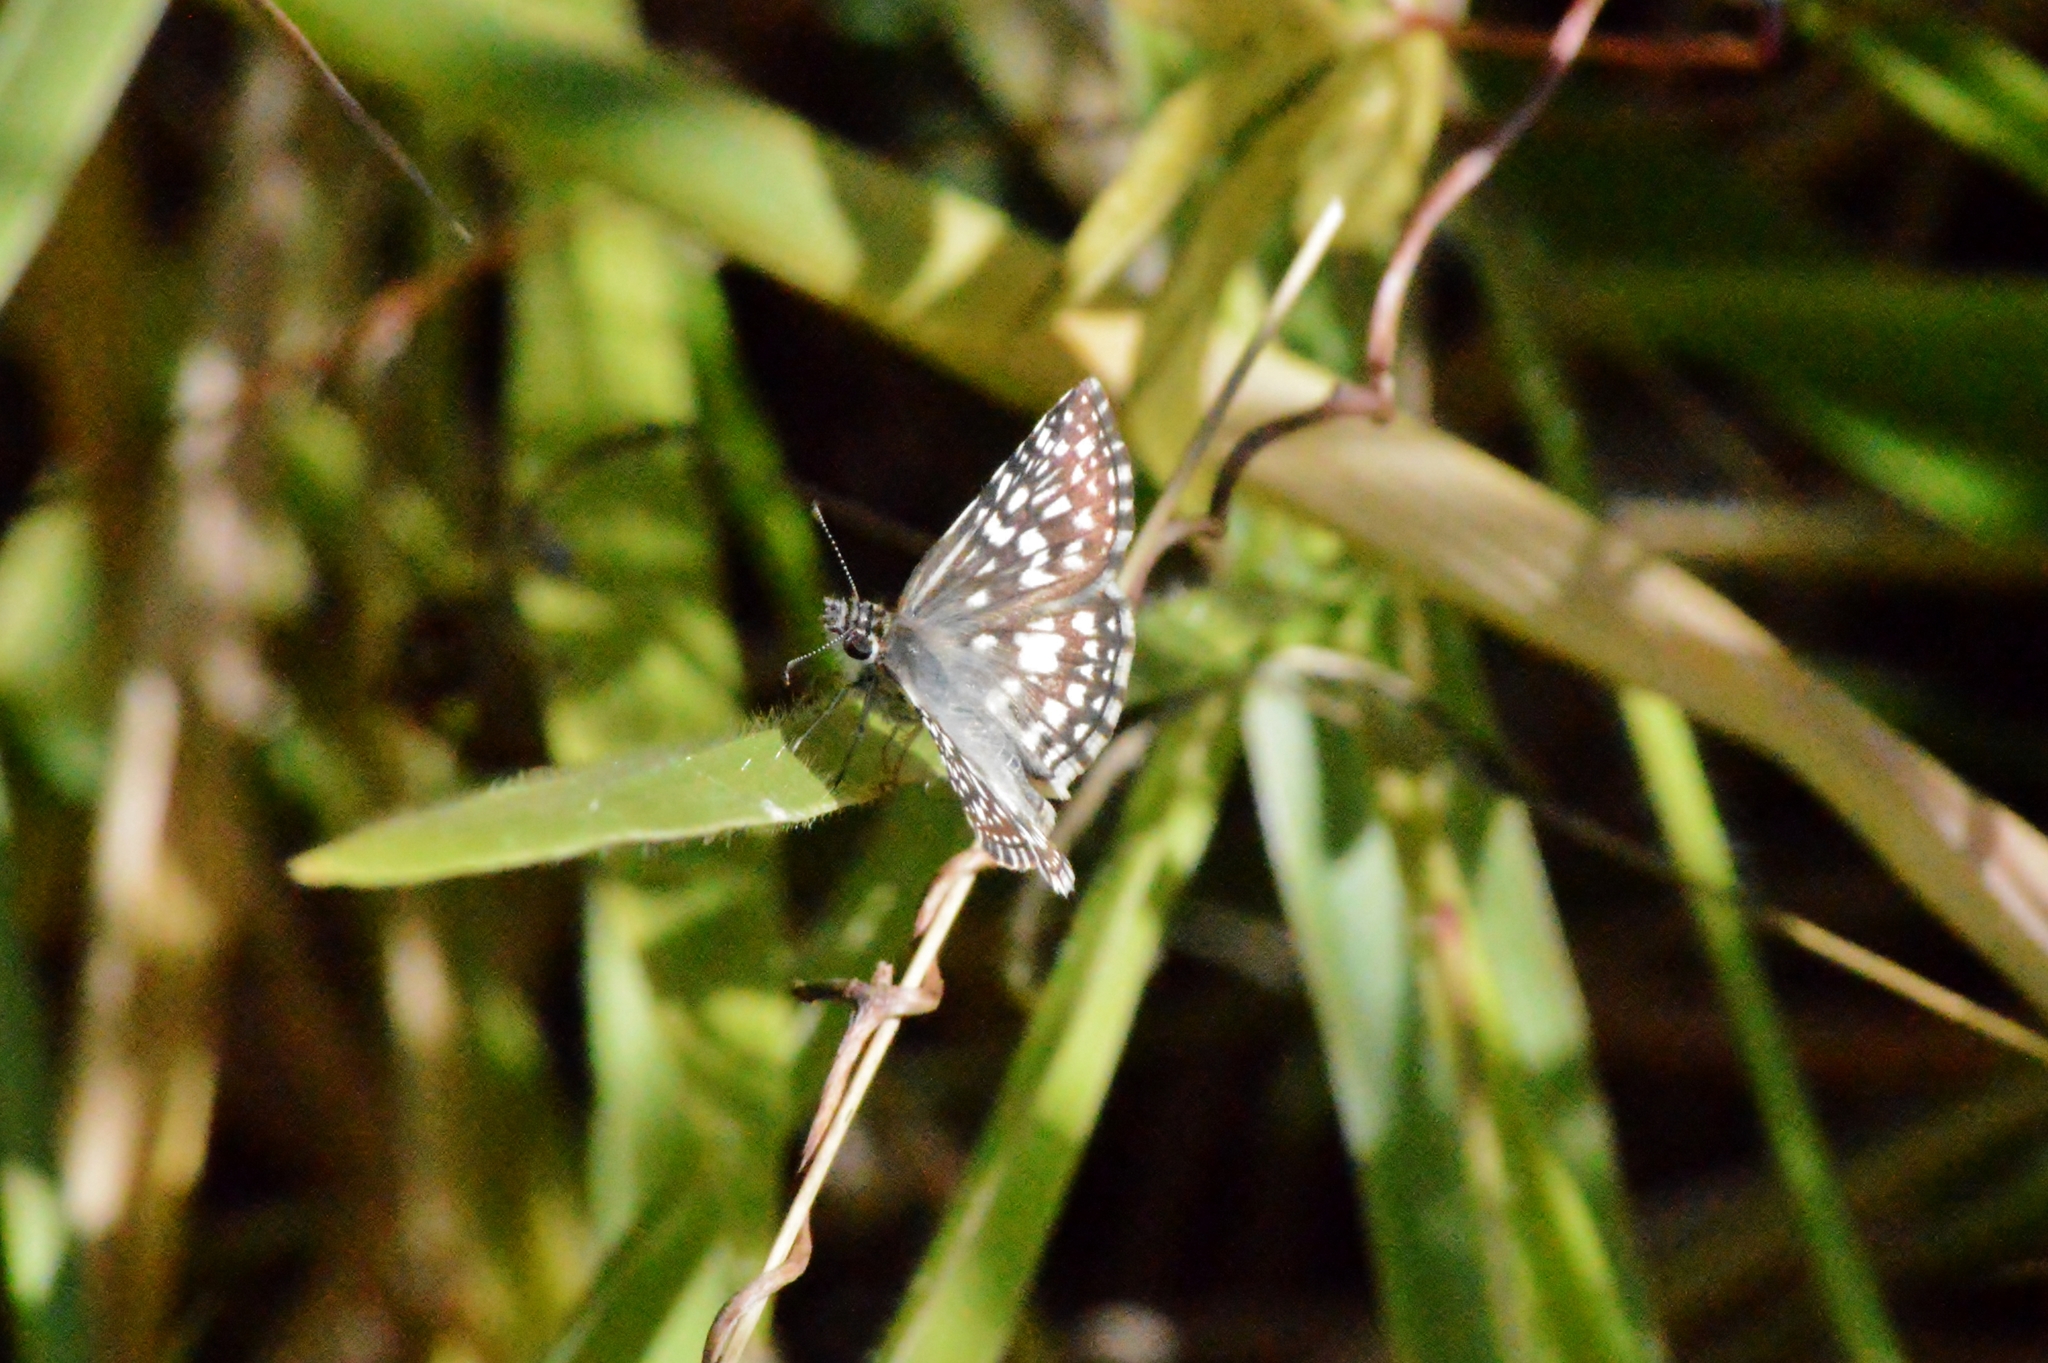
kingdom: Animalia
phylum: Arthropoda
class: Insecta
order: Lepidoptera
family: Hesperiidae
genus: Pyrgus
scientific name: Pyrgus oileus
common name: Tropical checkered-skipper
